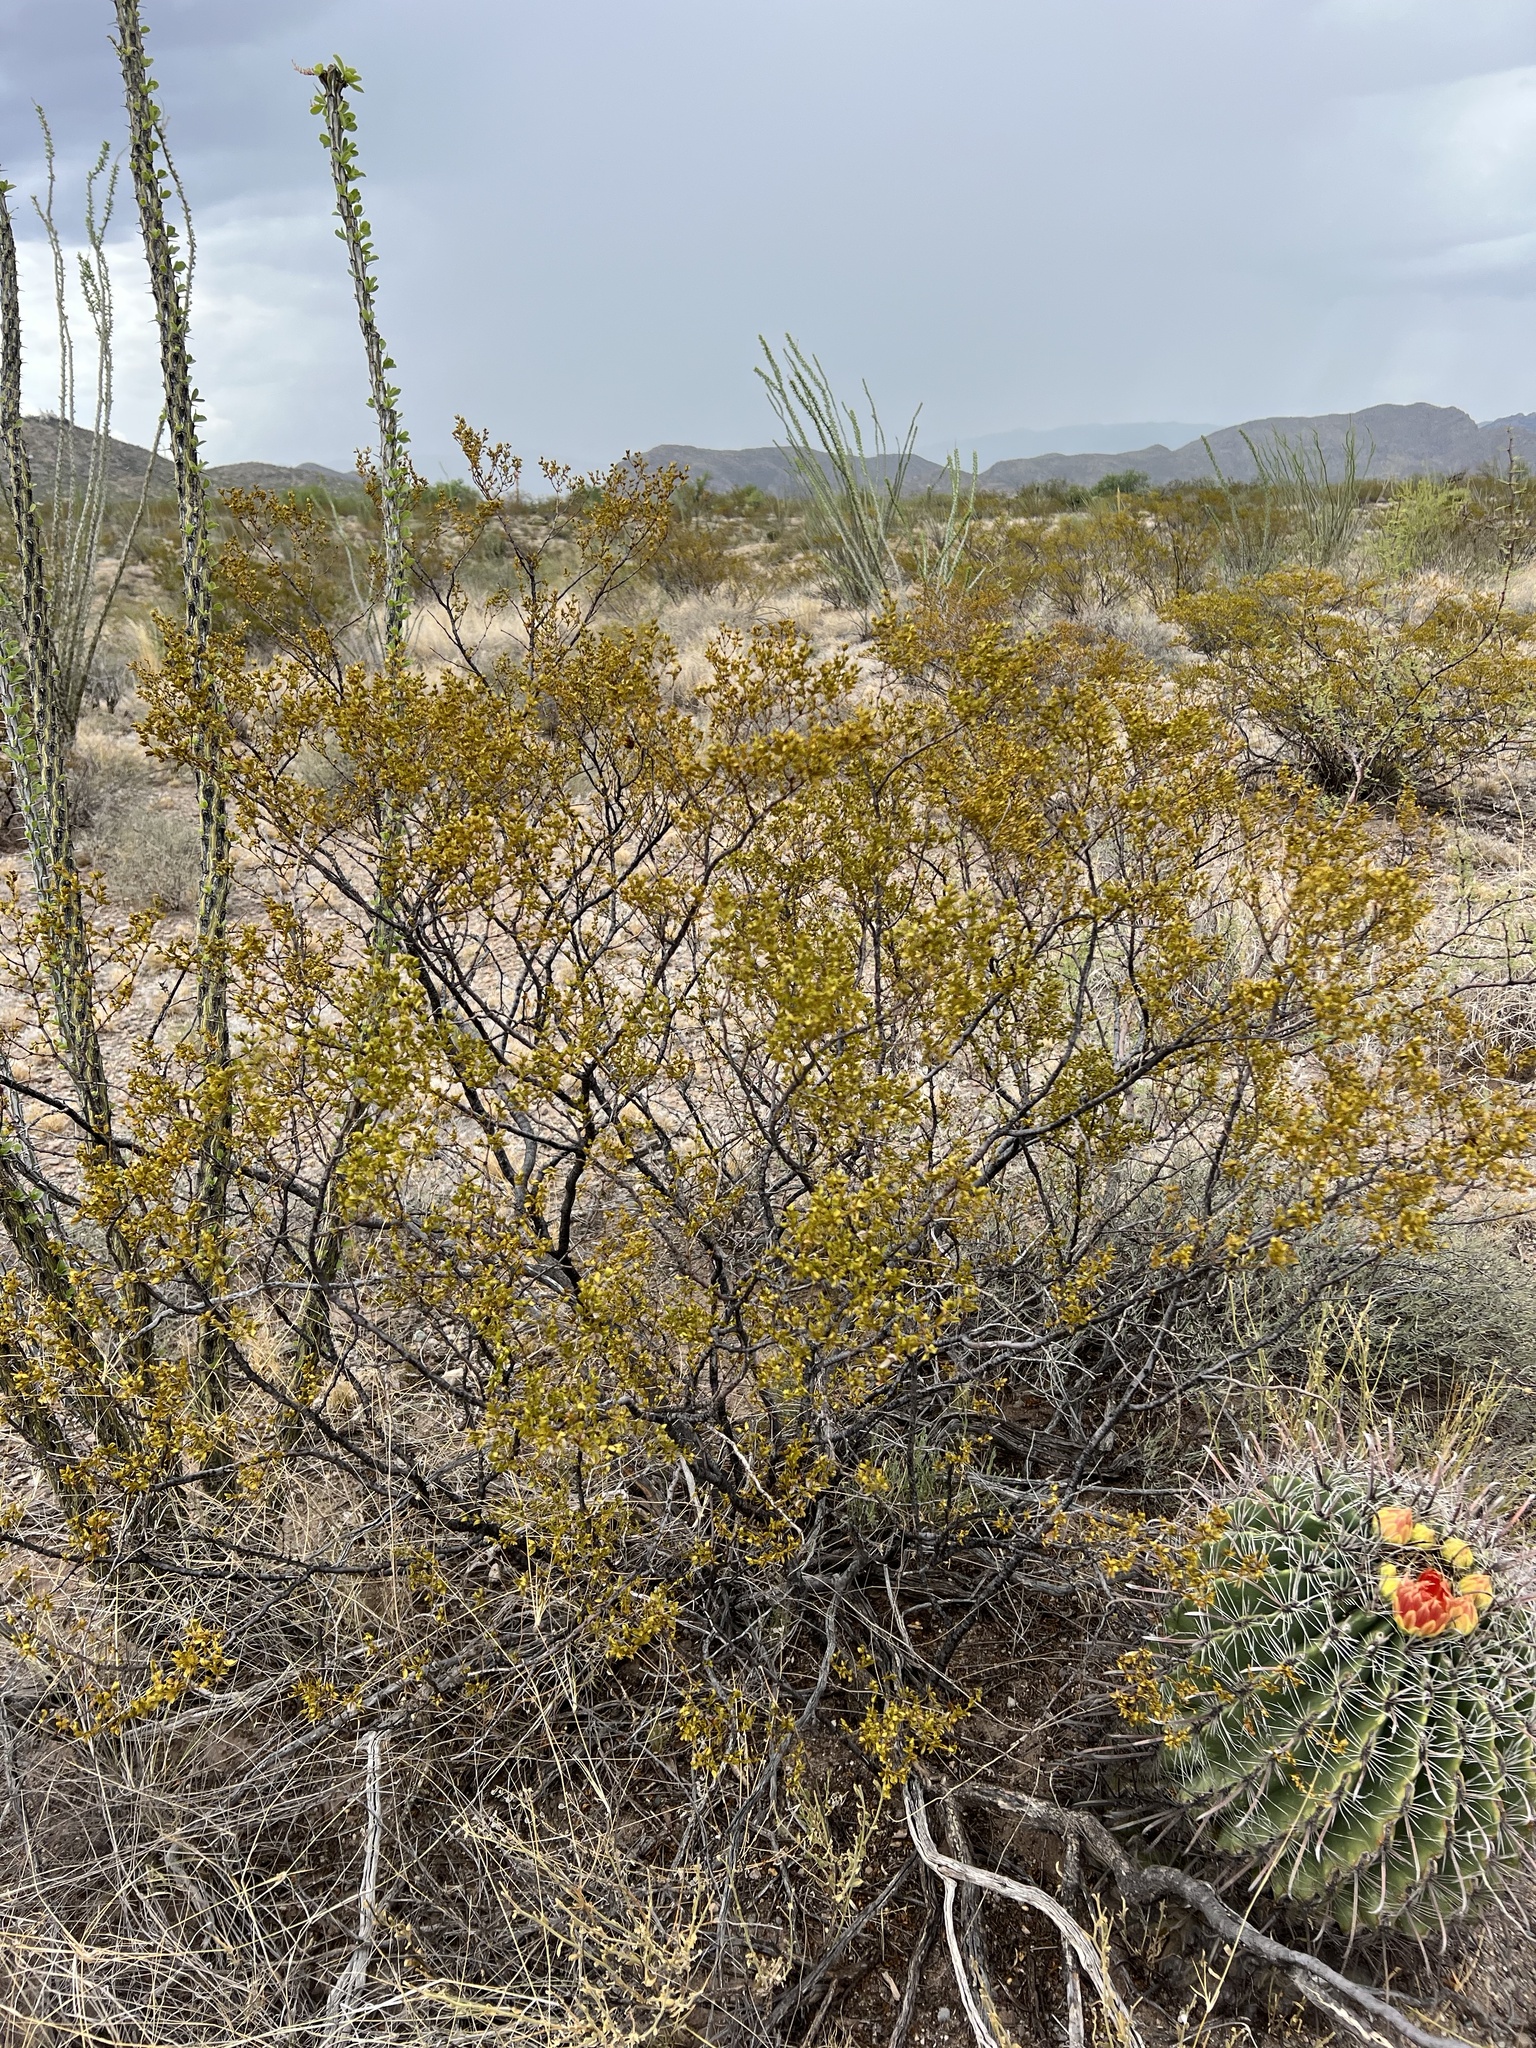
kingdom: Plantae
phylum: Tracheophyta
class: Magnoliopsida
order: Zygophyllales
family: Zygophyllaceae
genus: Larrea
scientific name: Larrea tridentata
